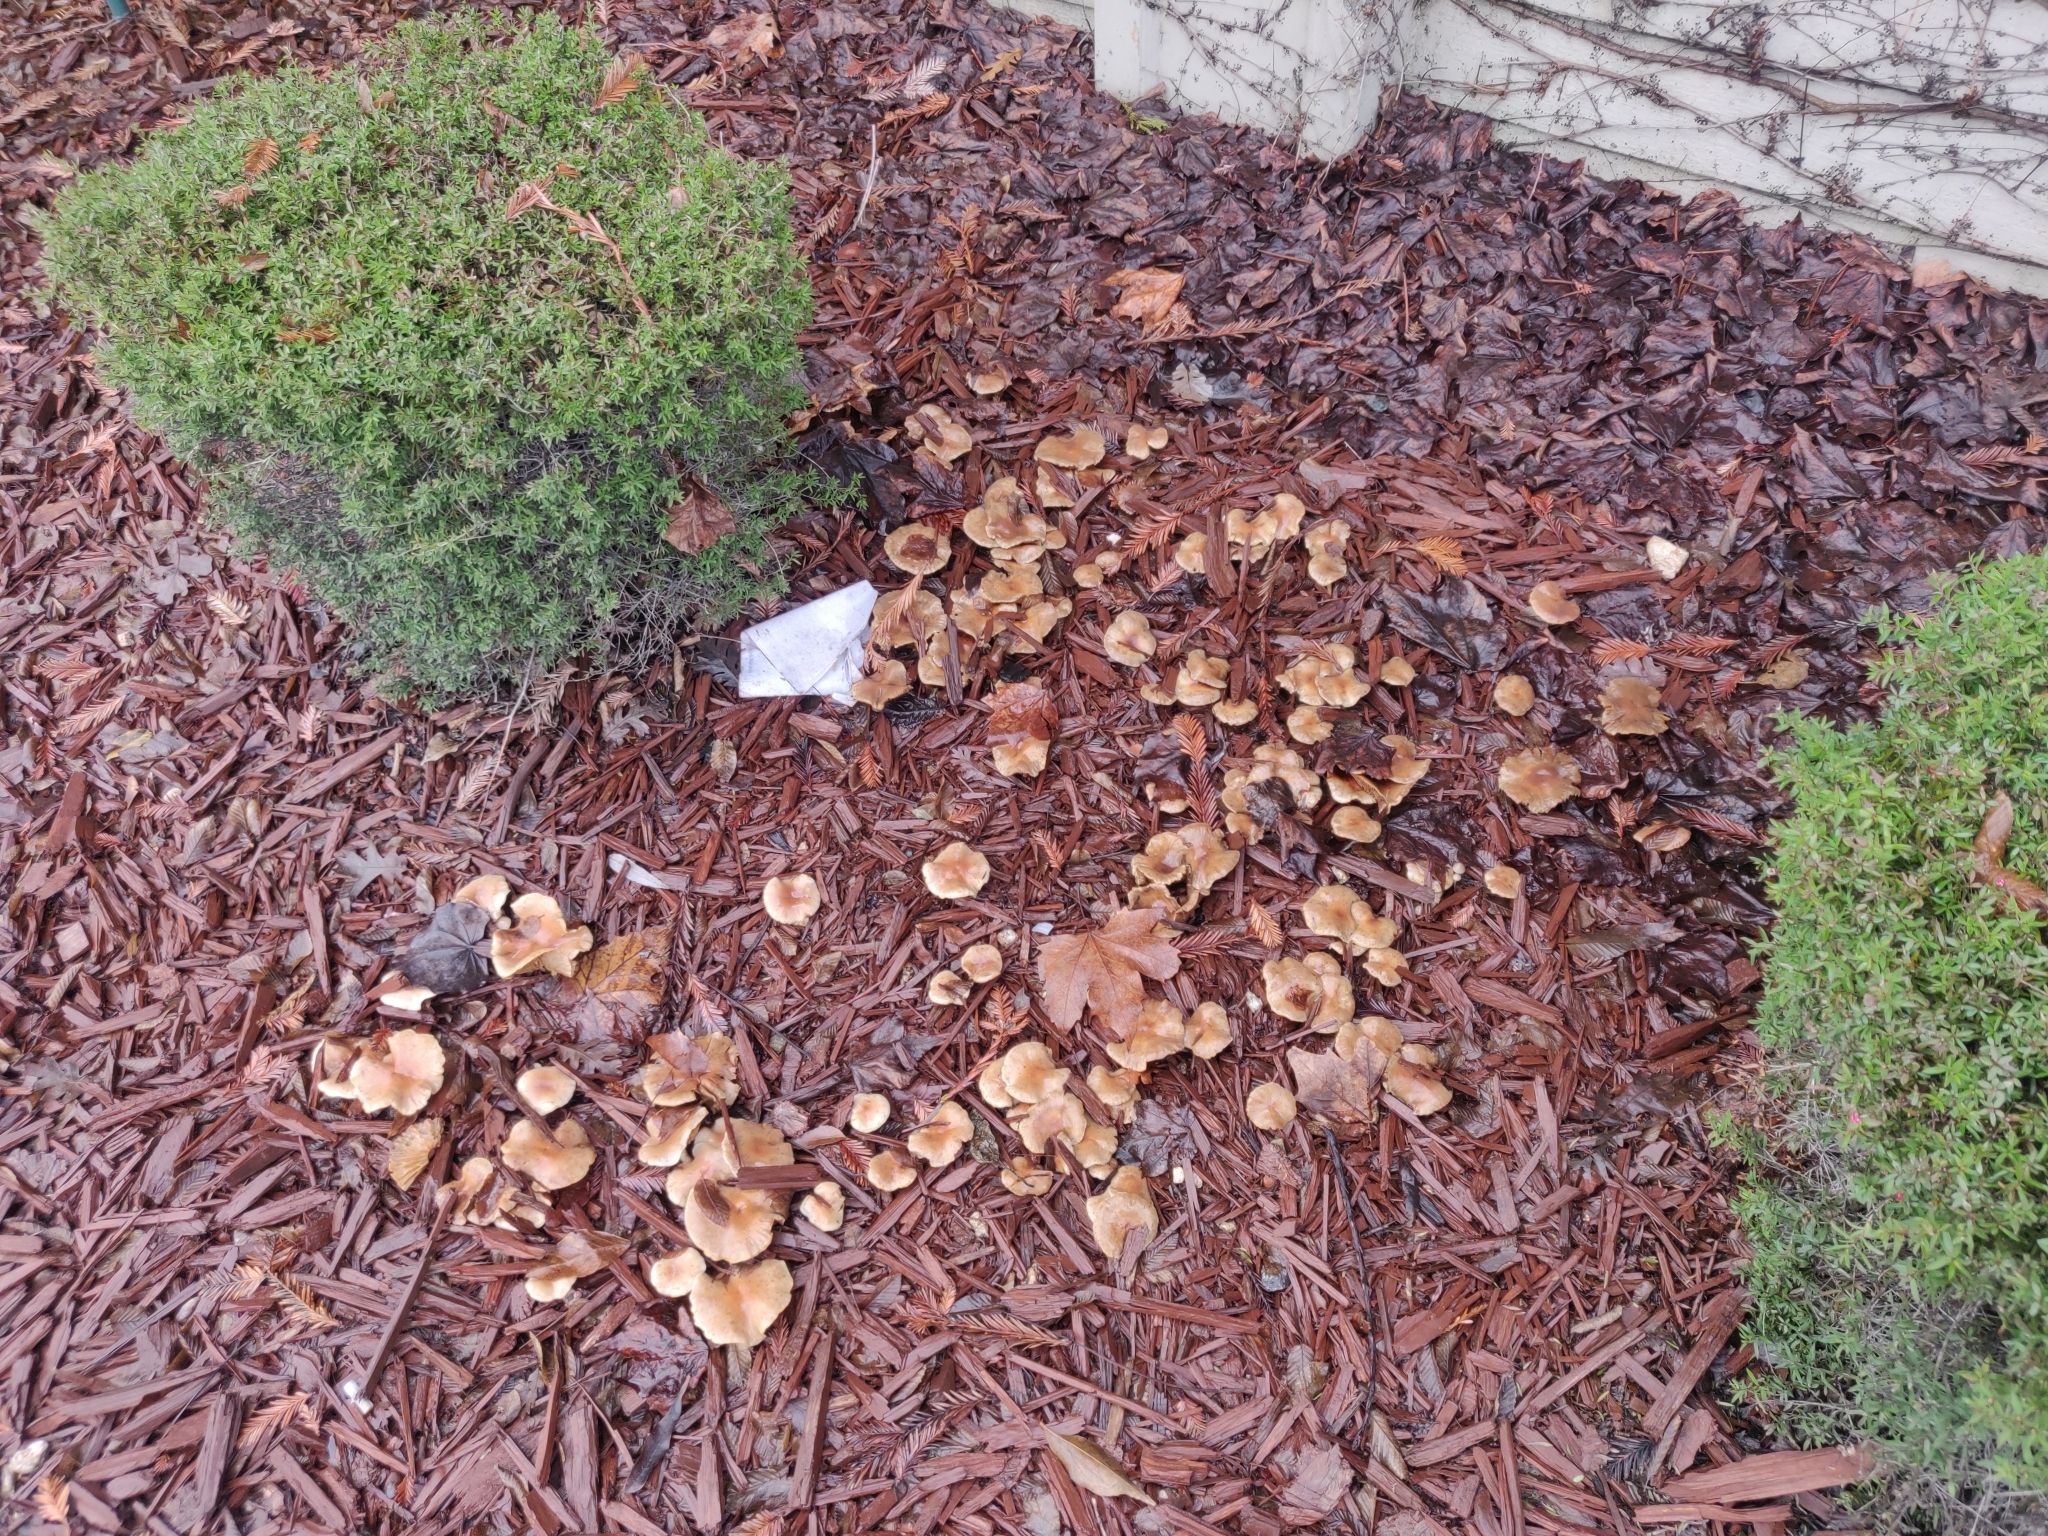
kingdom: Fungi
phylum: Basidiomycota
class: Agaricomycetes
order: Agaricales
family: Strophariaceae
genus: Pholiota
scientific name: Pholiota spumosa
